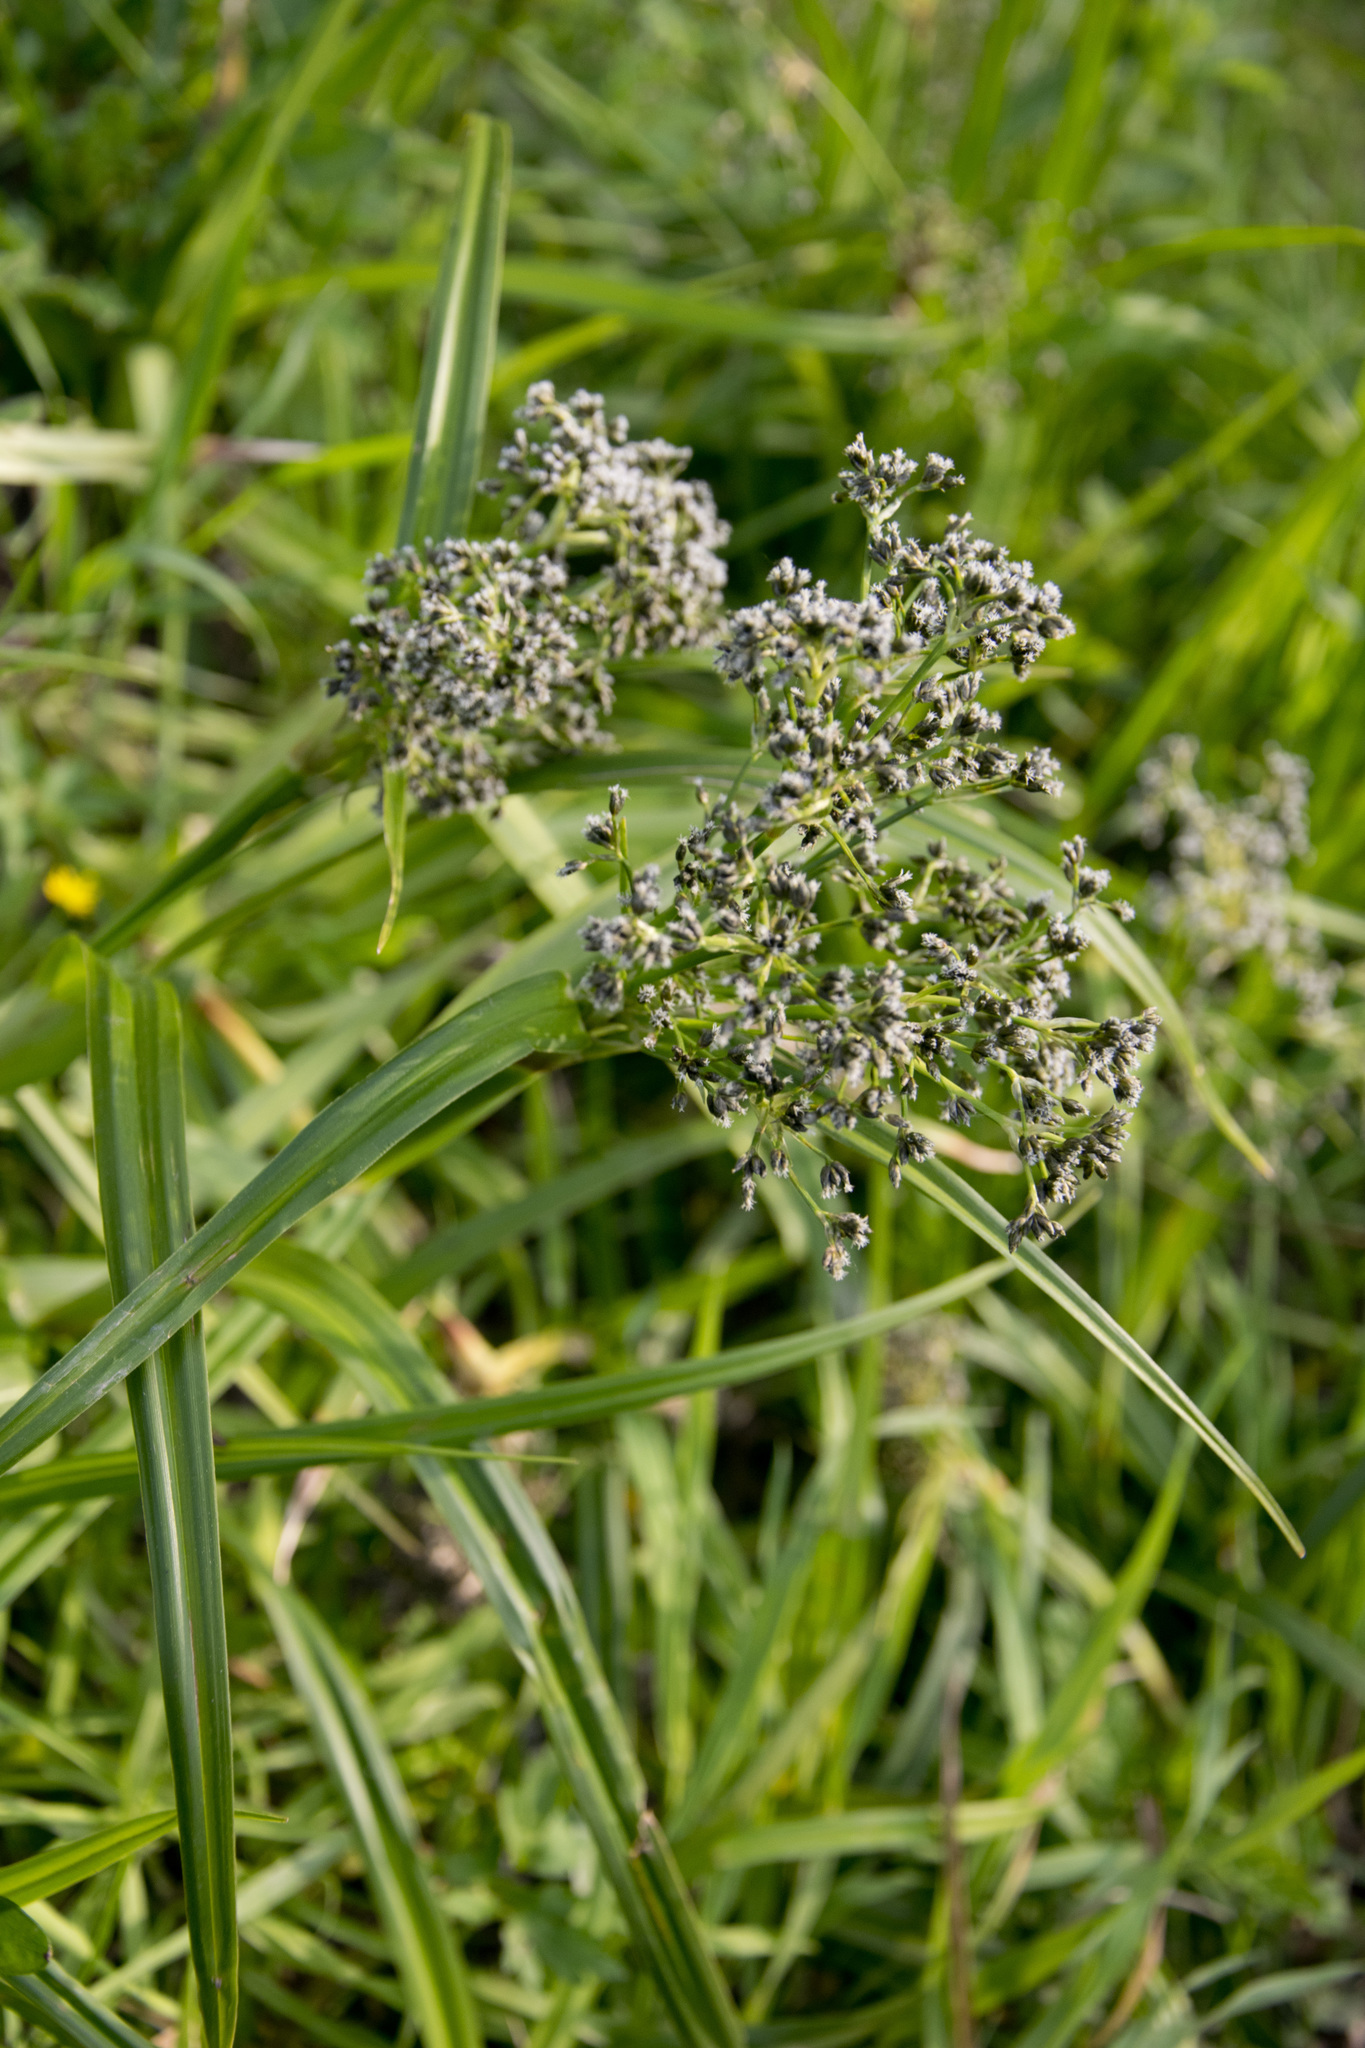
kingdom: Plantae
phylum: Tracheophyta
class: Liliopsida
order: Poales
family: Cyperaceae
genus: Scirpus
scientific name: Scirpus sylvaticus
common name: Wood club-rush
